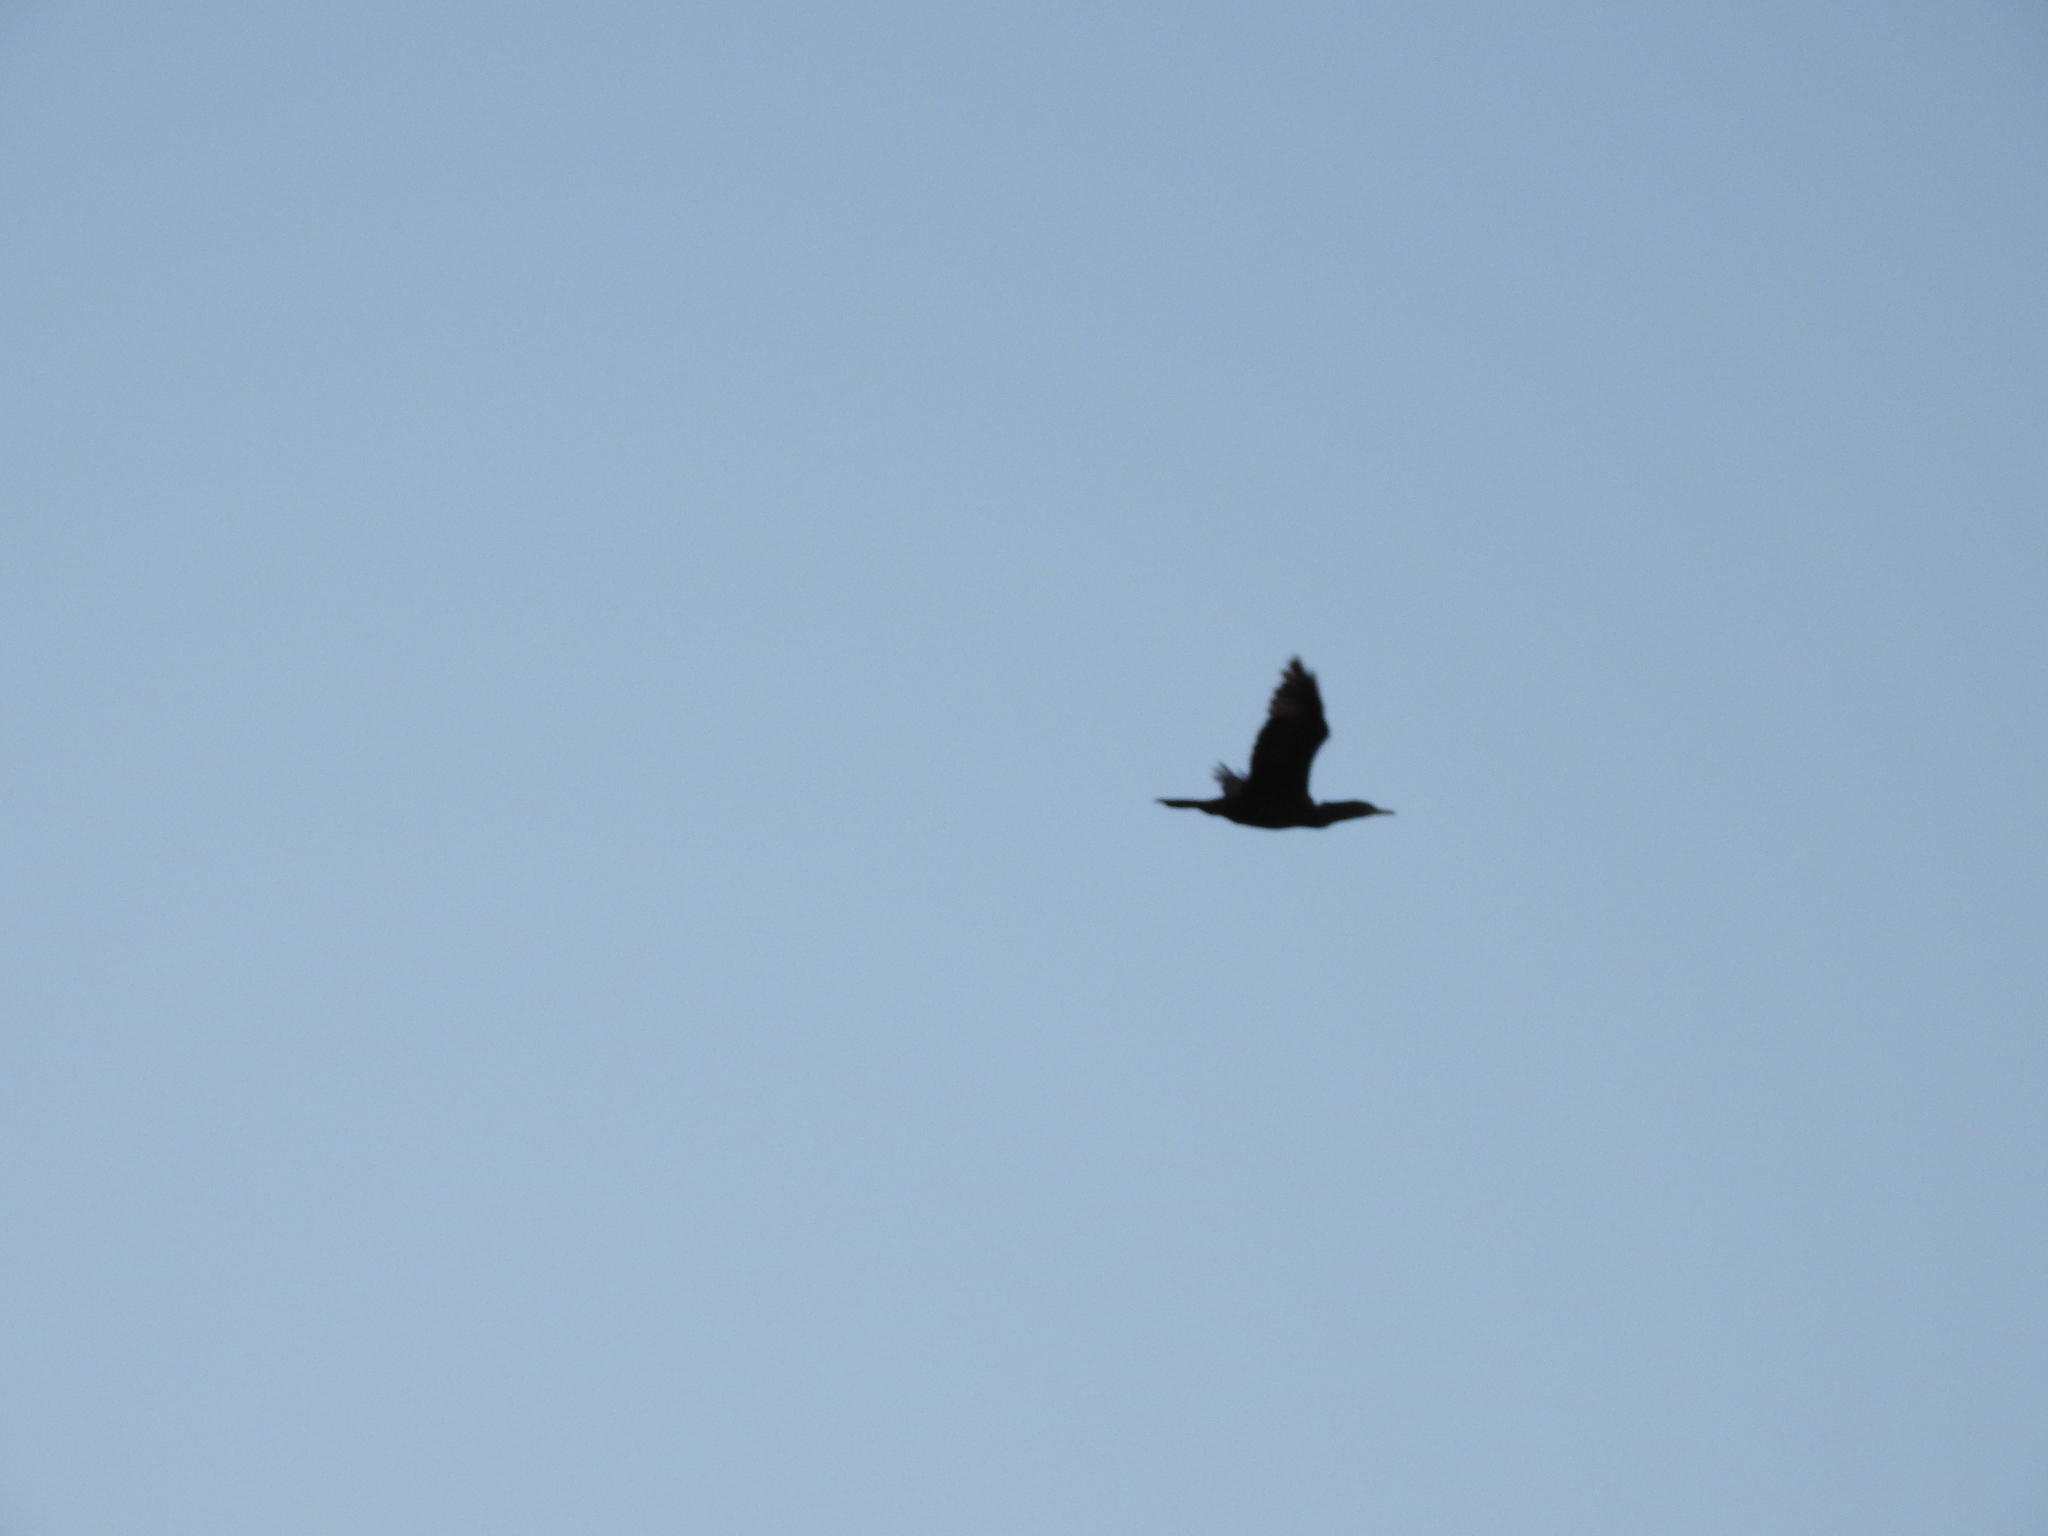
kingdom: Animalia
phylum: Chordata
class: Aves
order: Suliformes
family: Phalacrocoracidae
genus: Phalacrocorax
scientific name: Phalacrocorax brasilianus
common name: Neotropic cormorant
